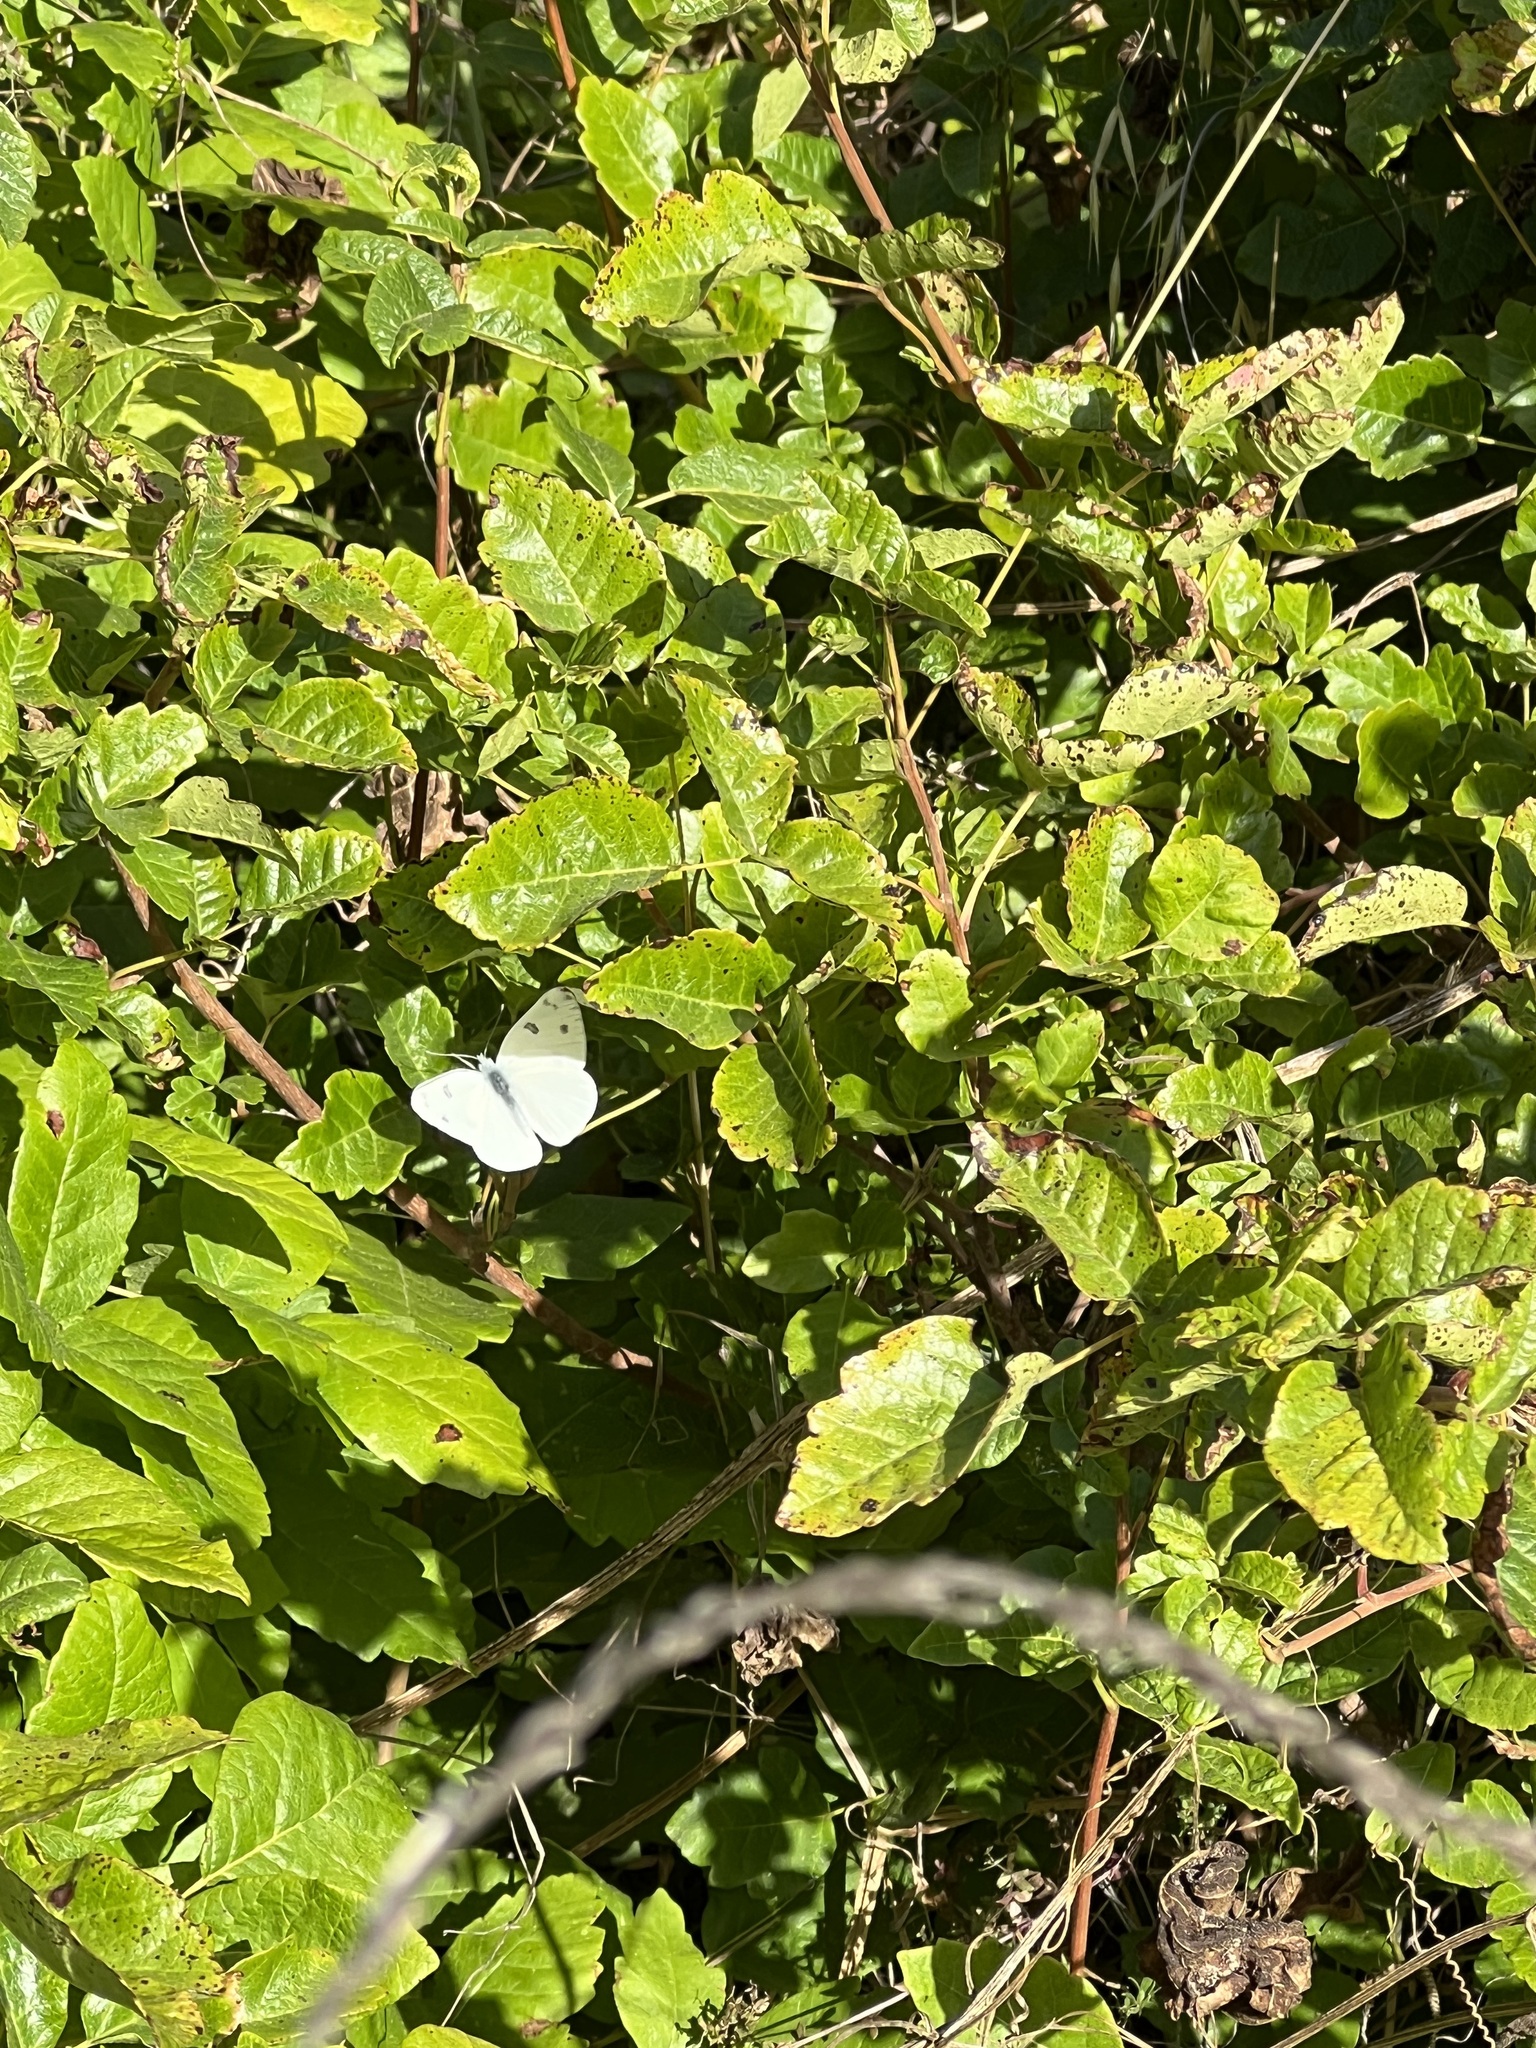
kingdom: Animalia
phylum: Arthropoda
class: Insecta
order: Lepidoptera
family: Pieridae
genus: Pontia
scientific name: Pontia protodice
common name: Checkered white
